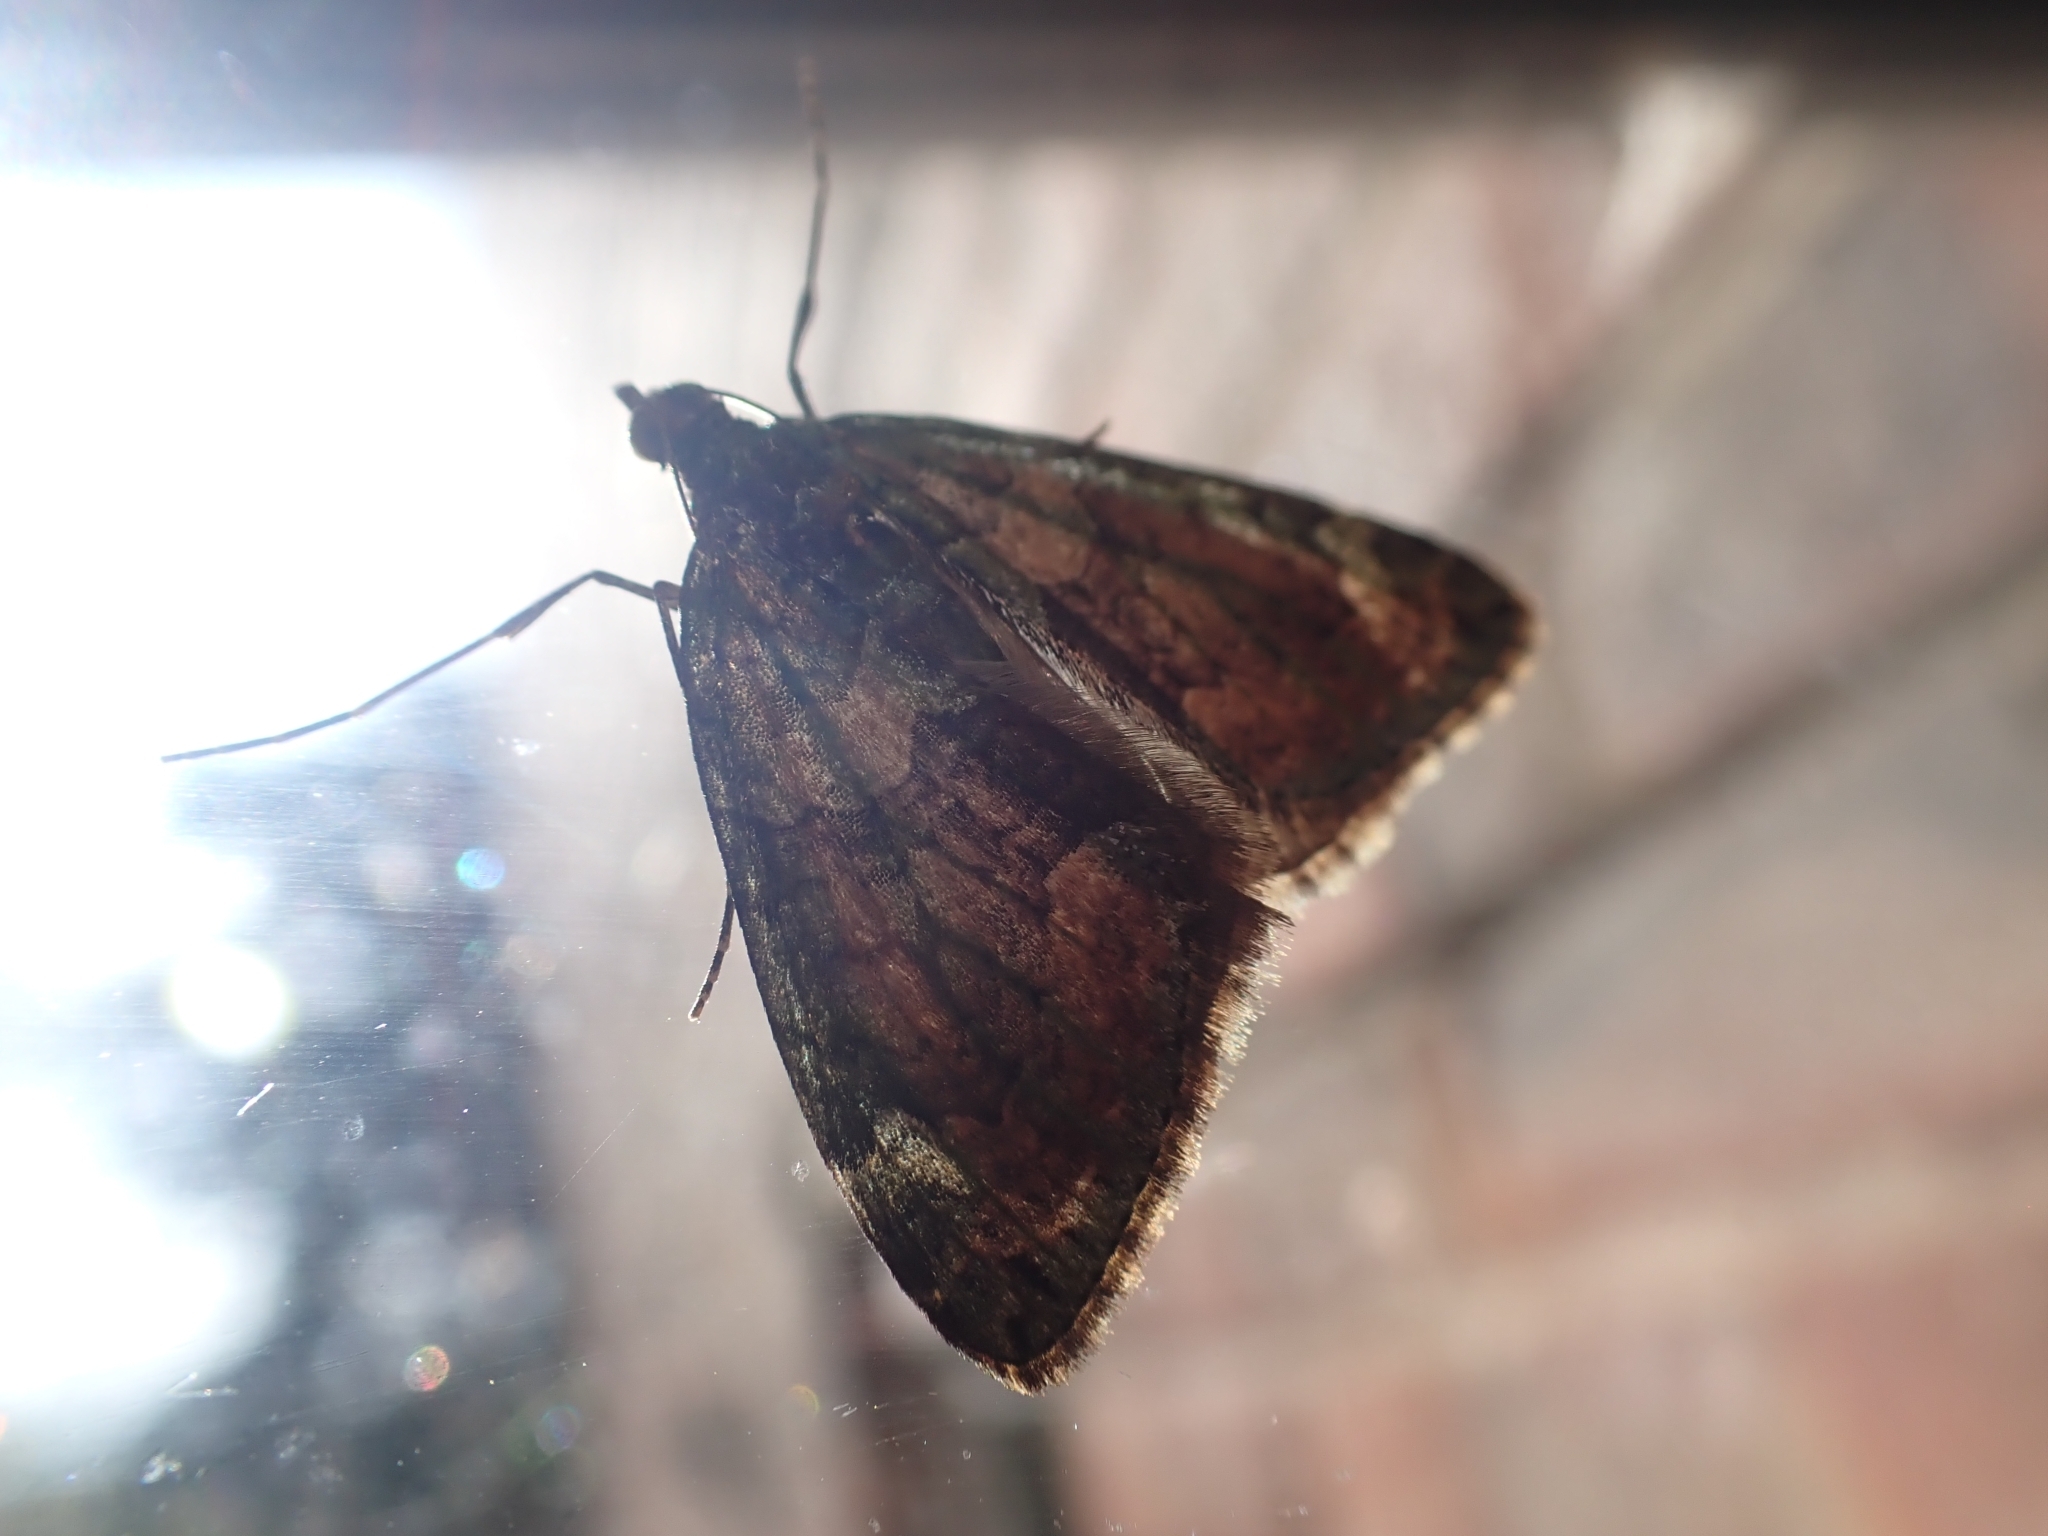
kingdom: Animalia
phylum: Arthropoda
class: Insecta
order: Lepidoptera
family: Geometridae
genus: Chloroclysta
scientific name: Chloroclysta siterata
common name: Red-green carpet
